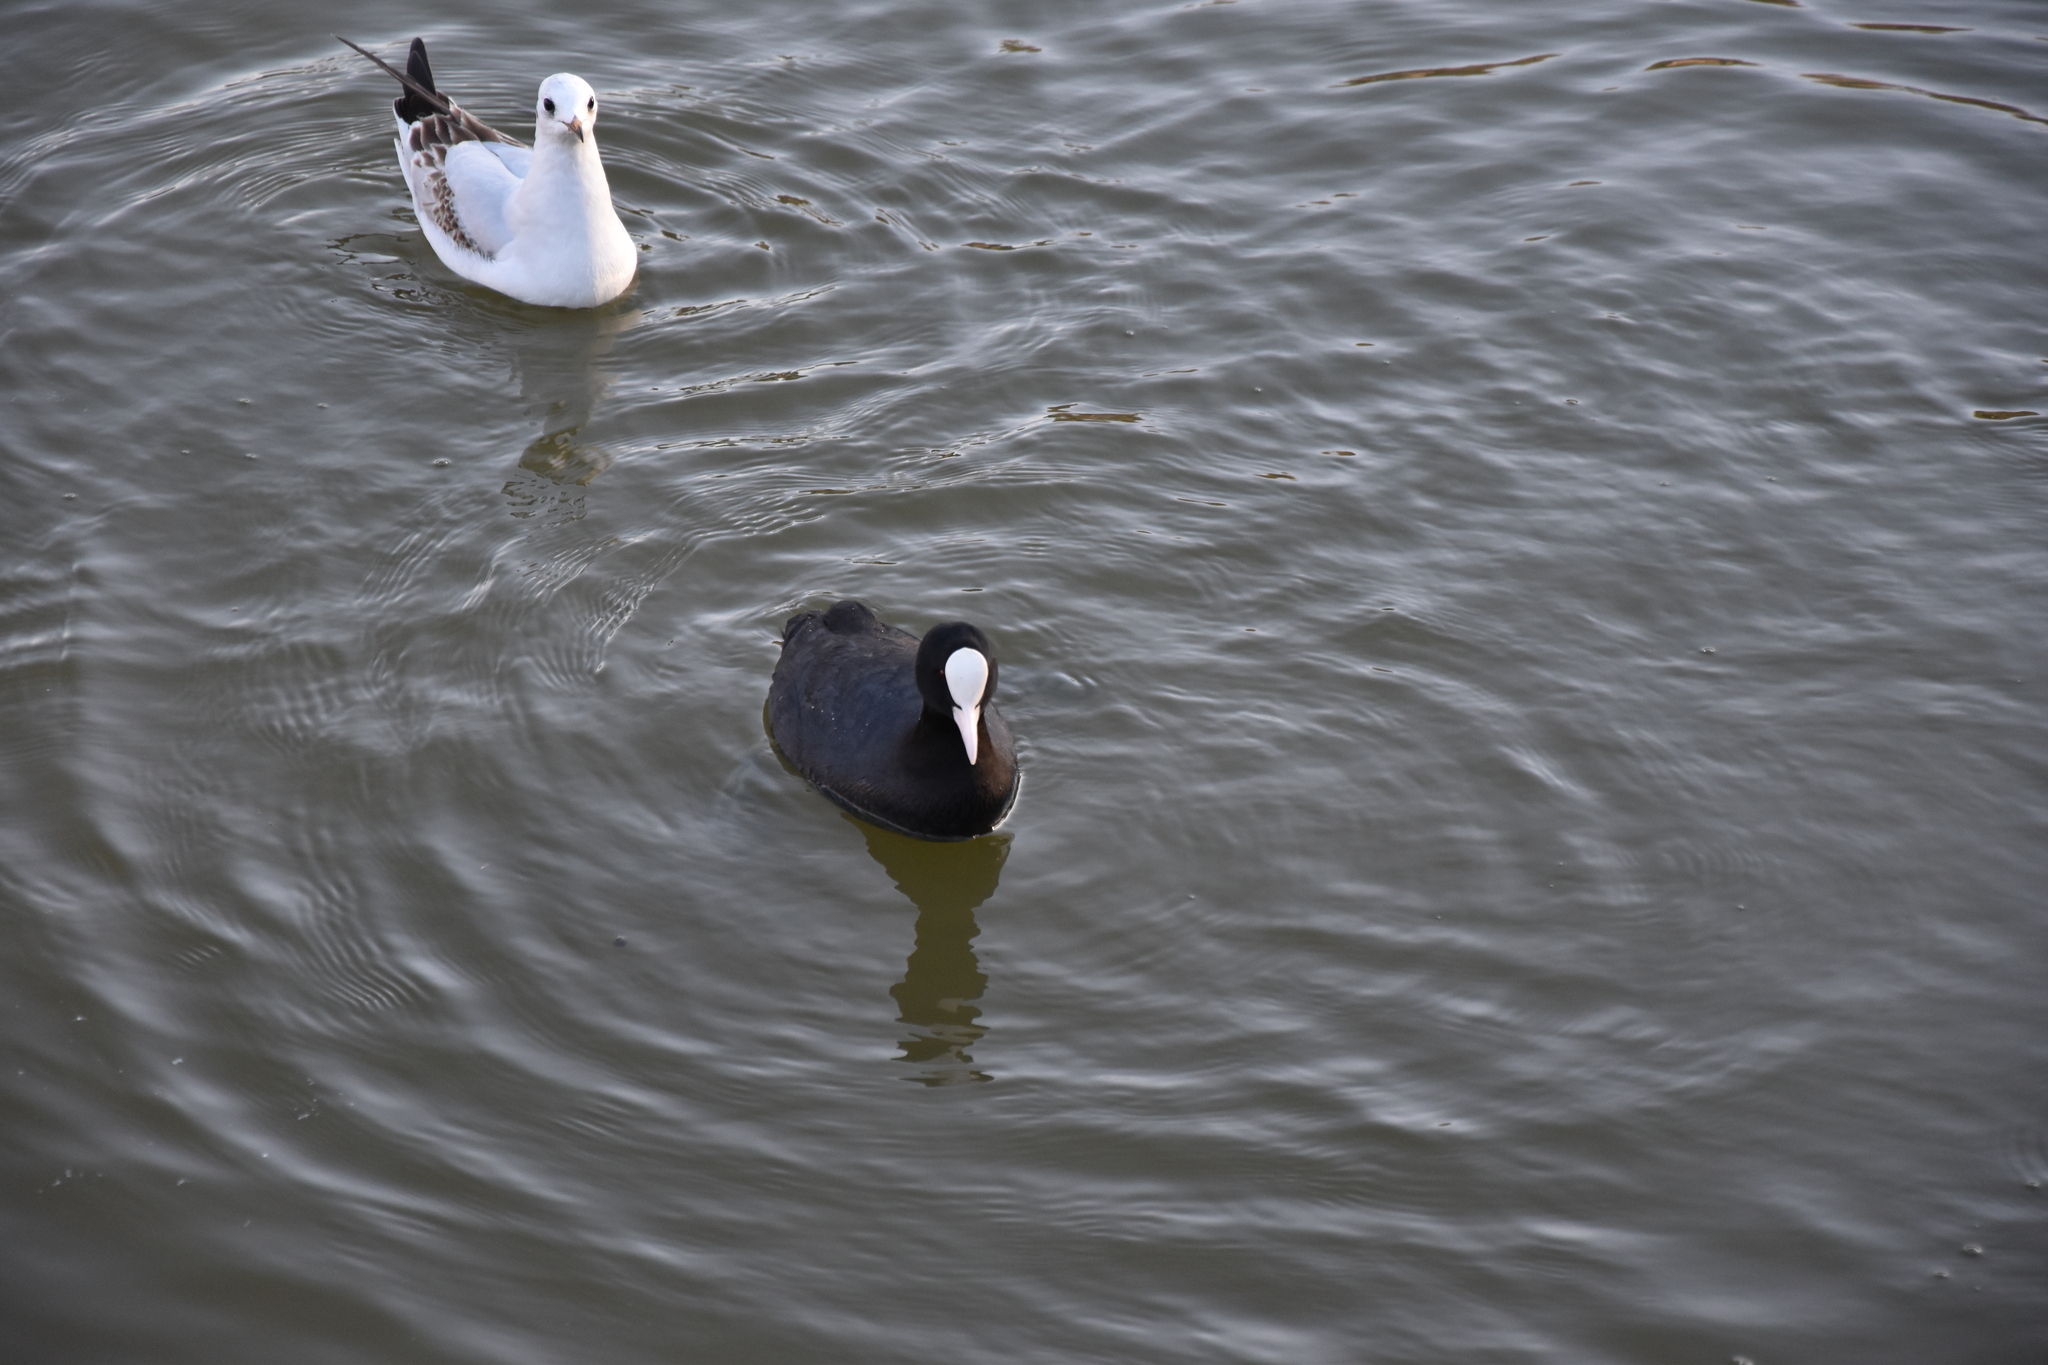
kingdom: Animalia
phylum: Chordata
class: Aves
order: Gruiformes
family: Rallidae
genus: Fulica
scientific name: Fulica atra
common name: Eurasian coot
